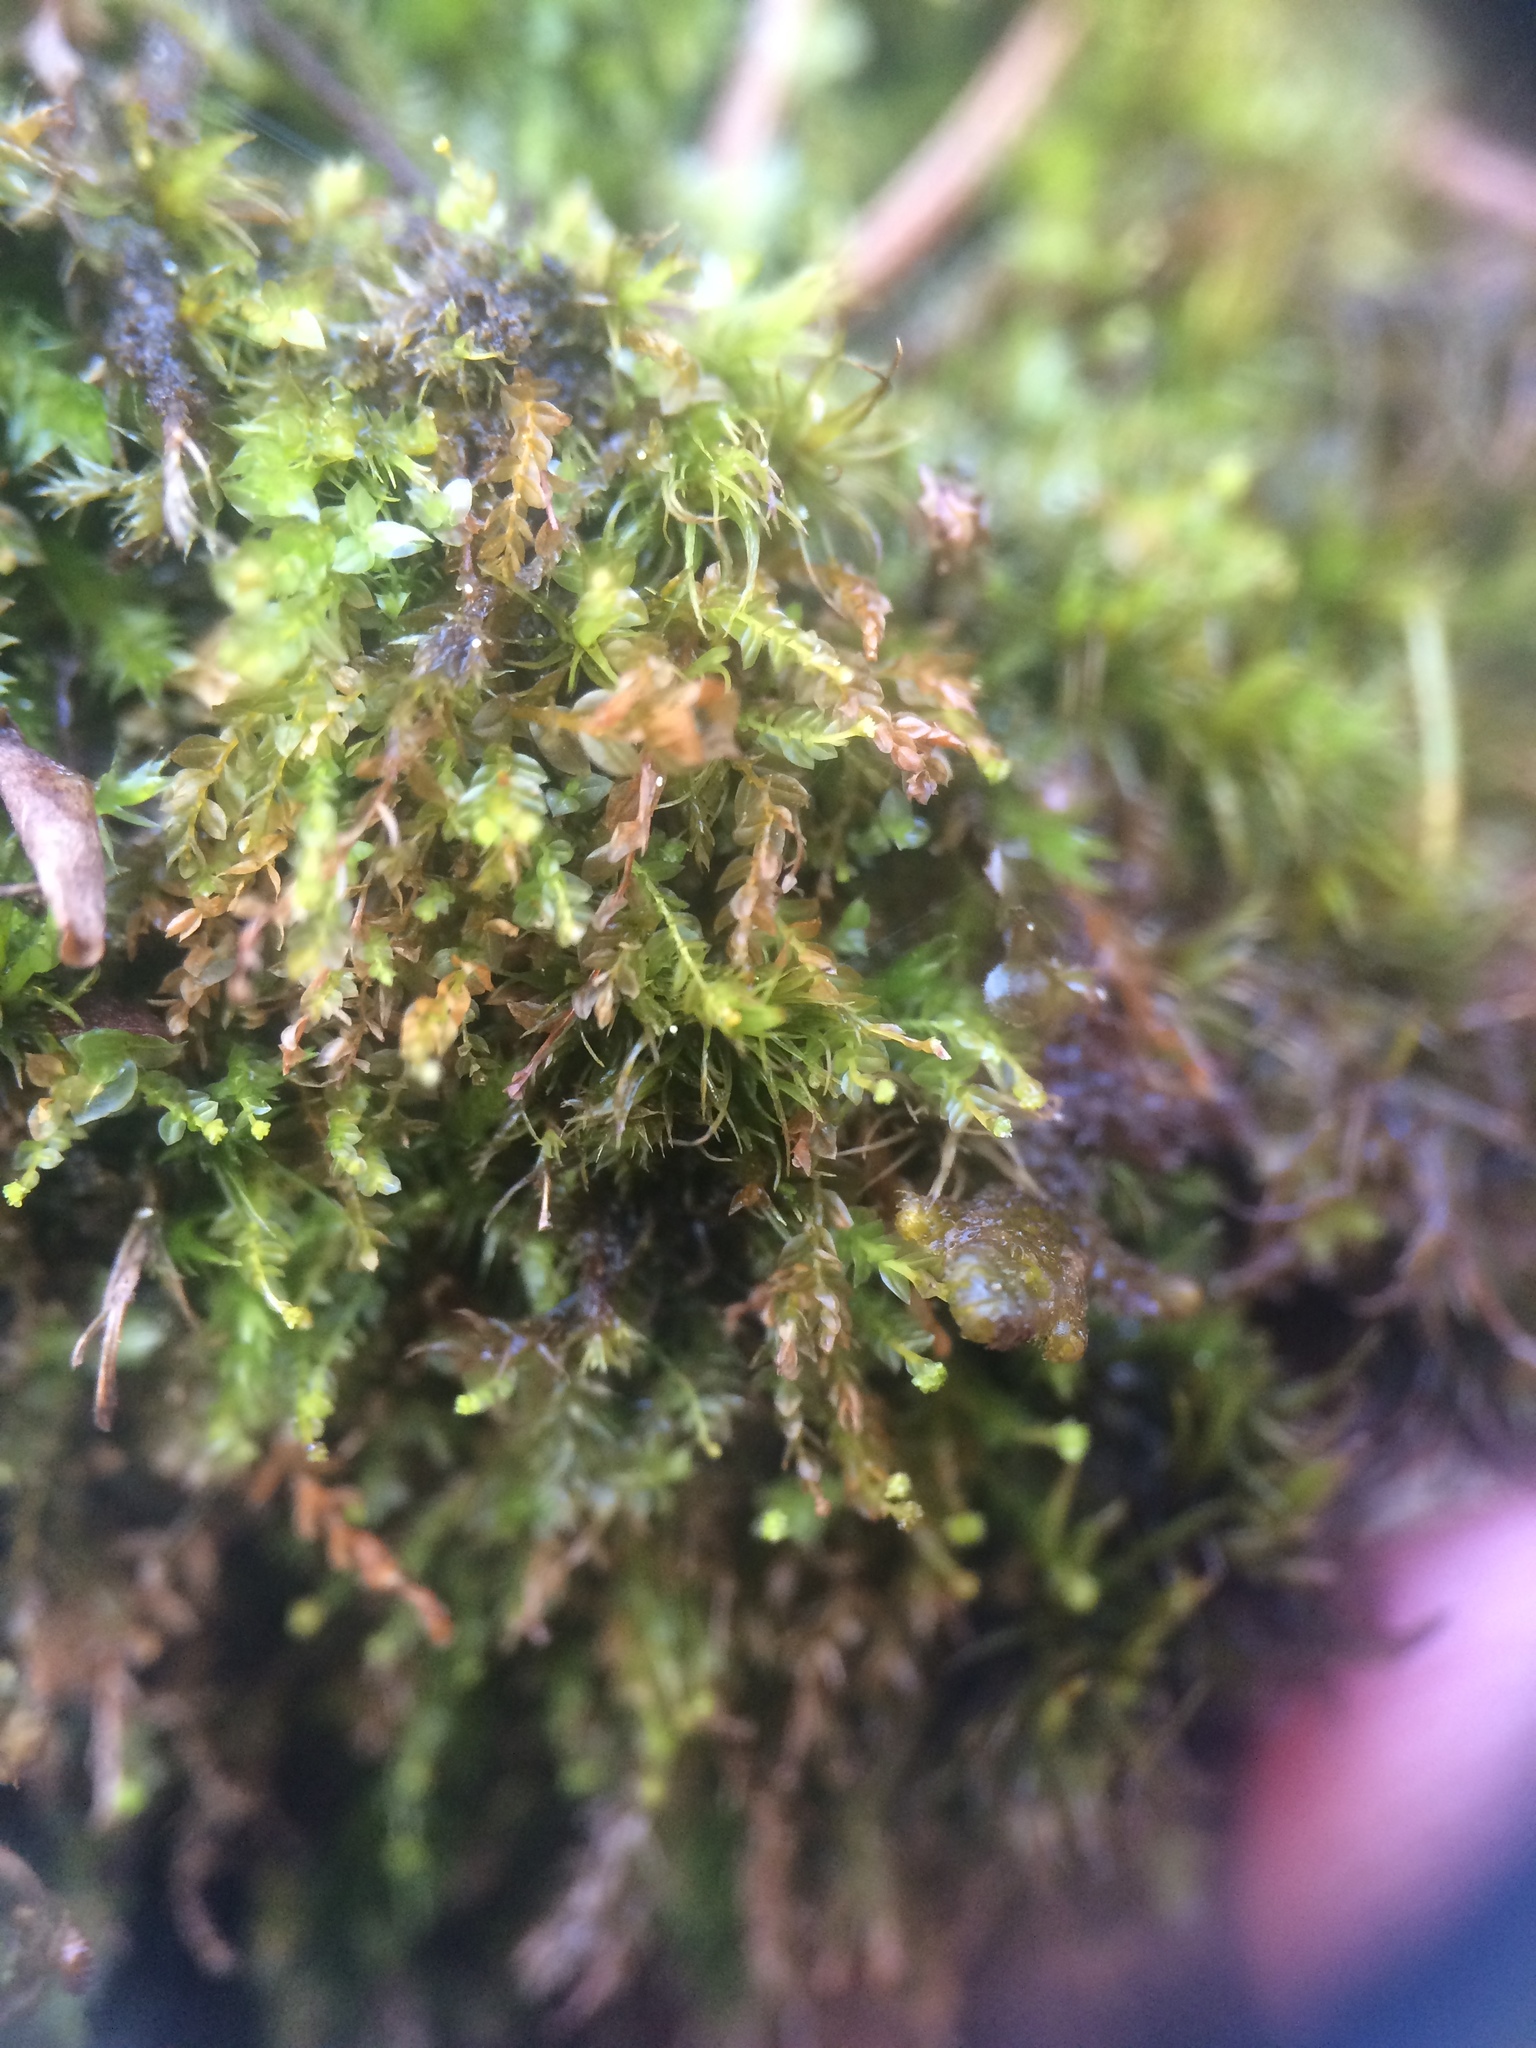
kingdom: Plantae
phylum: Bryophyta
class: Polytrichopsida
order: Tetraphidales
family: Tetraphidaceae
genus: Tetraphis
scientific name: Tetraphis pellucida
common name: Common four-toothed moss
